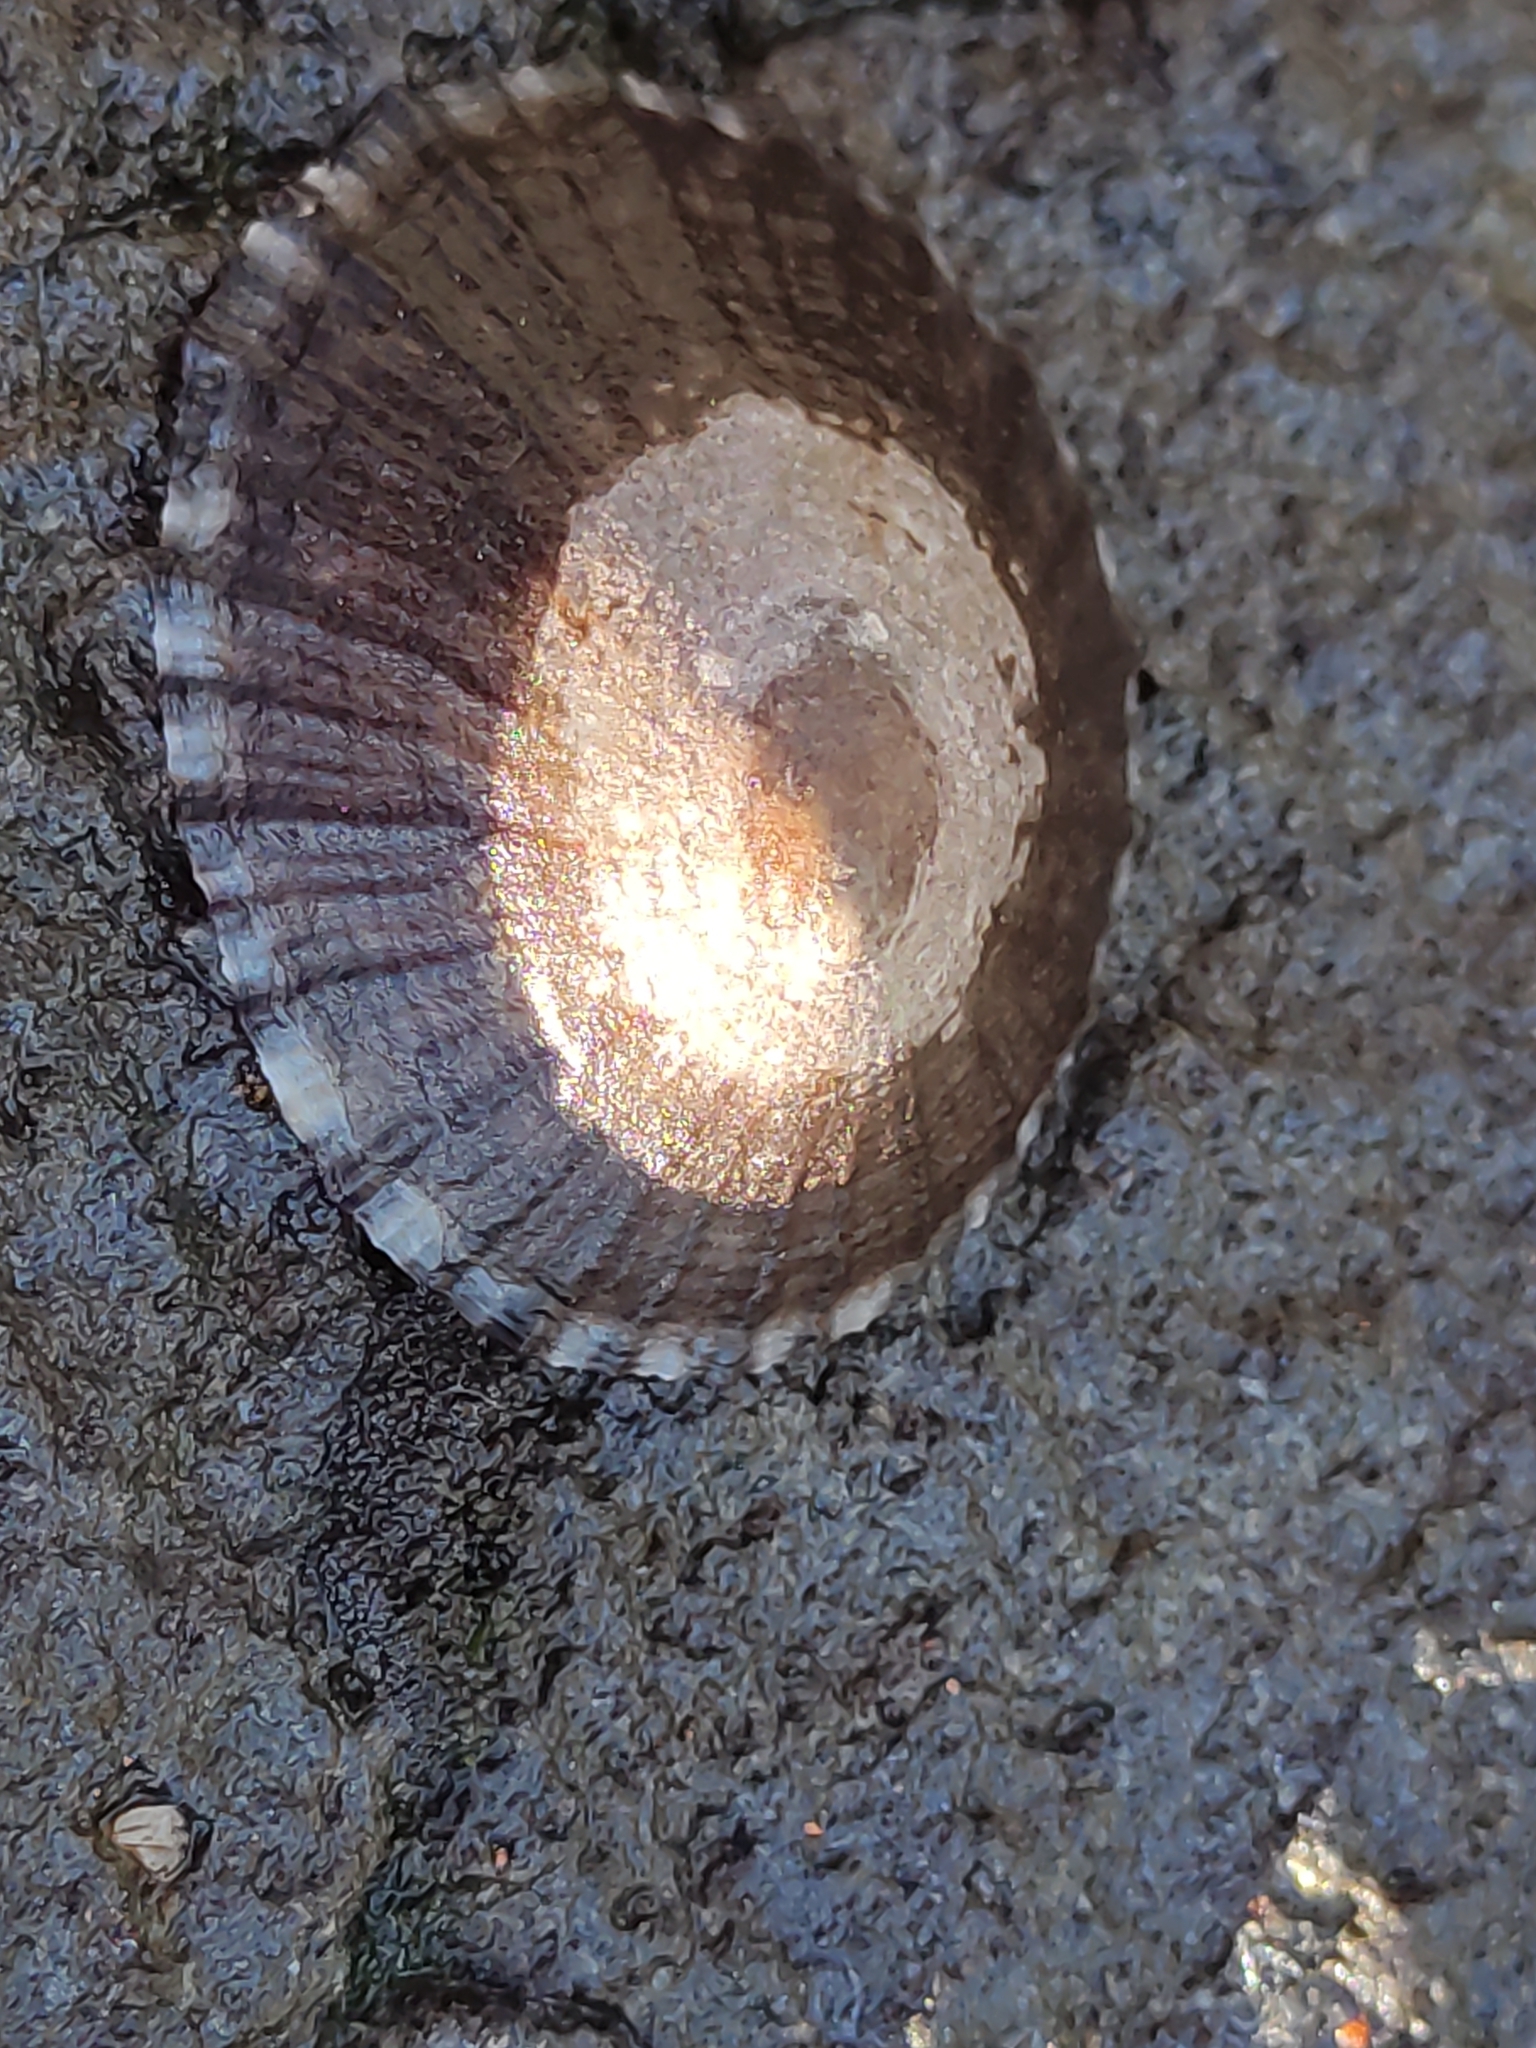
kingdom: Animalia
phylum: Mollusca
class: Gastropoda
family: Nacellidae
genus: Cellana
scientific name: Cellana radians
